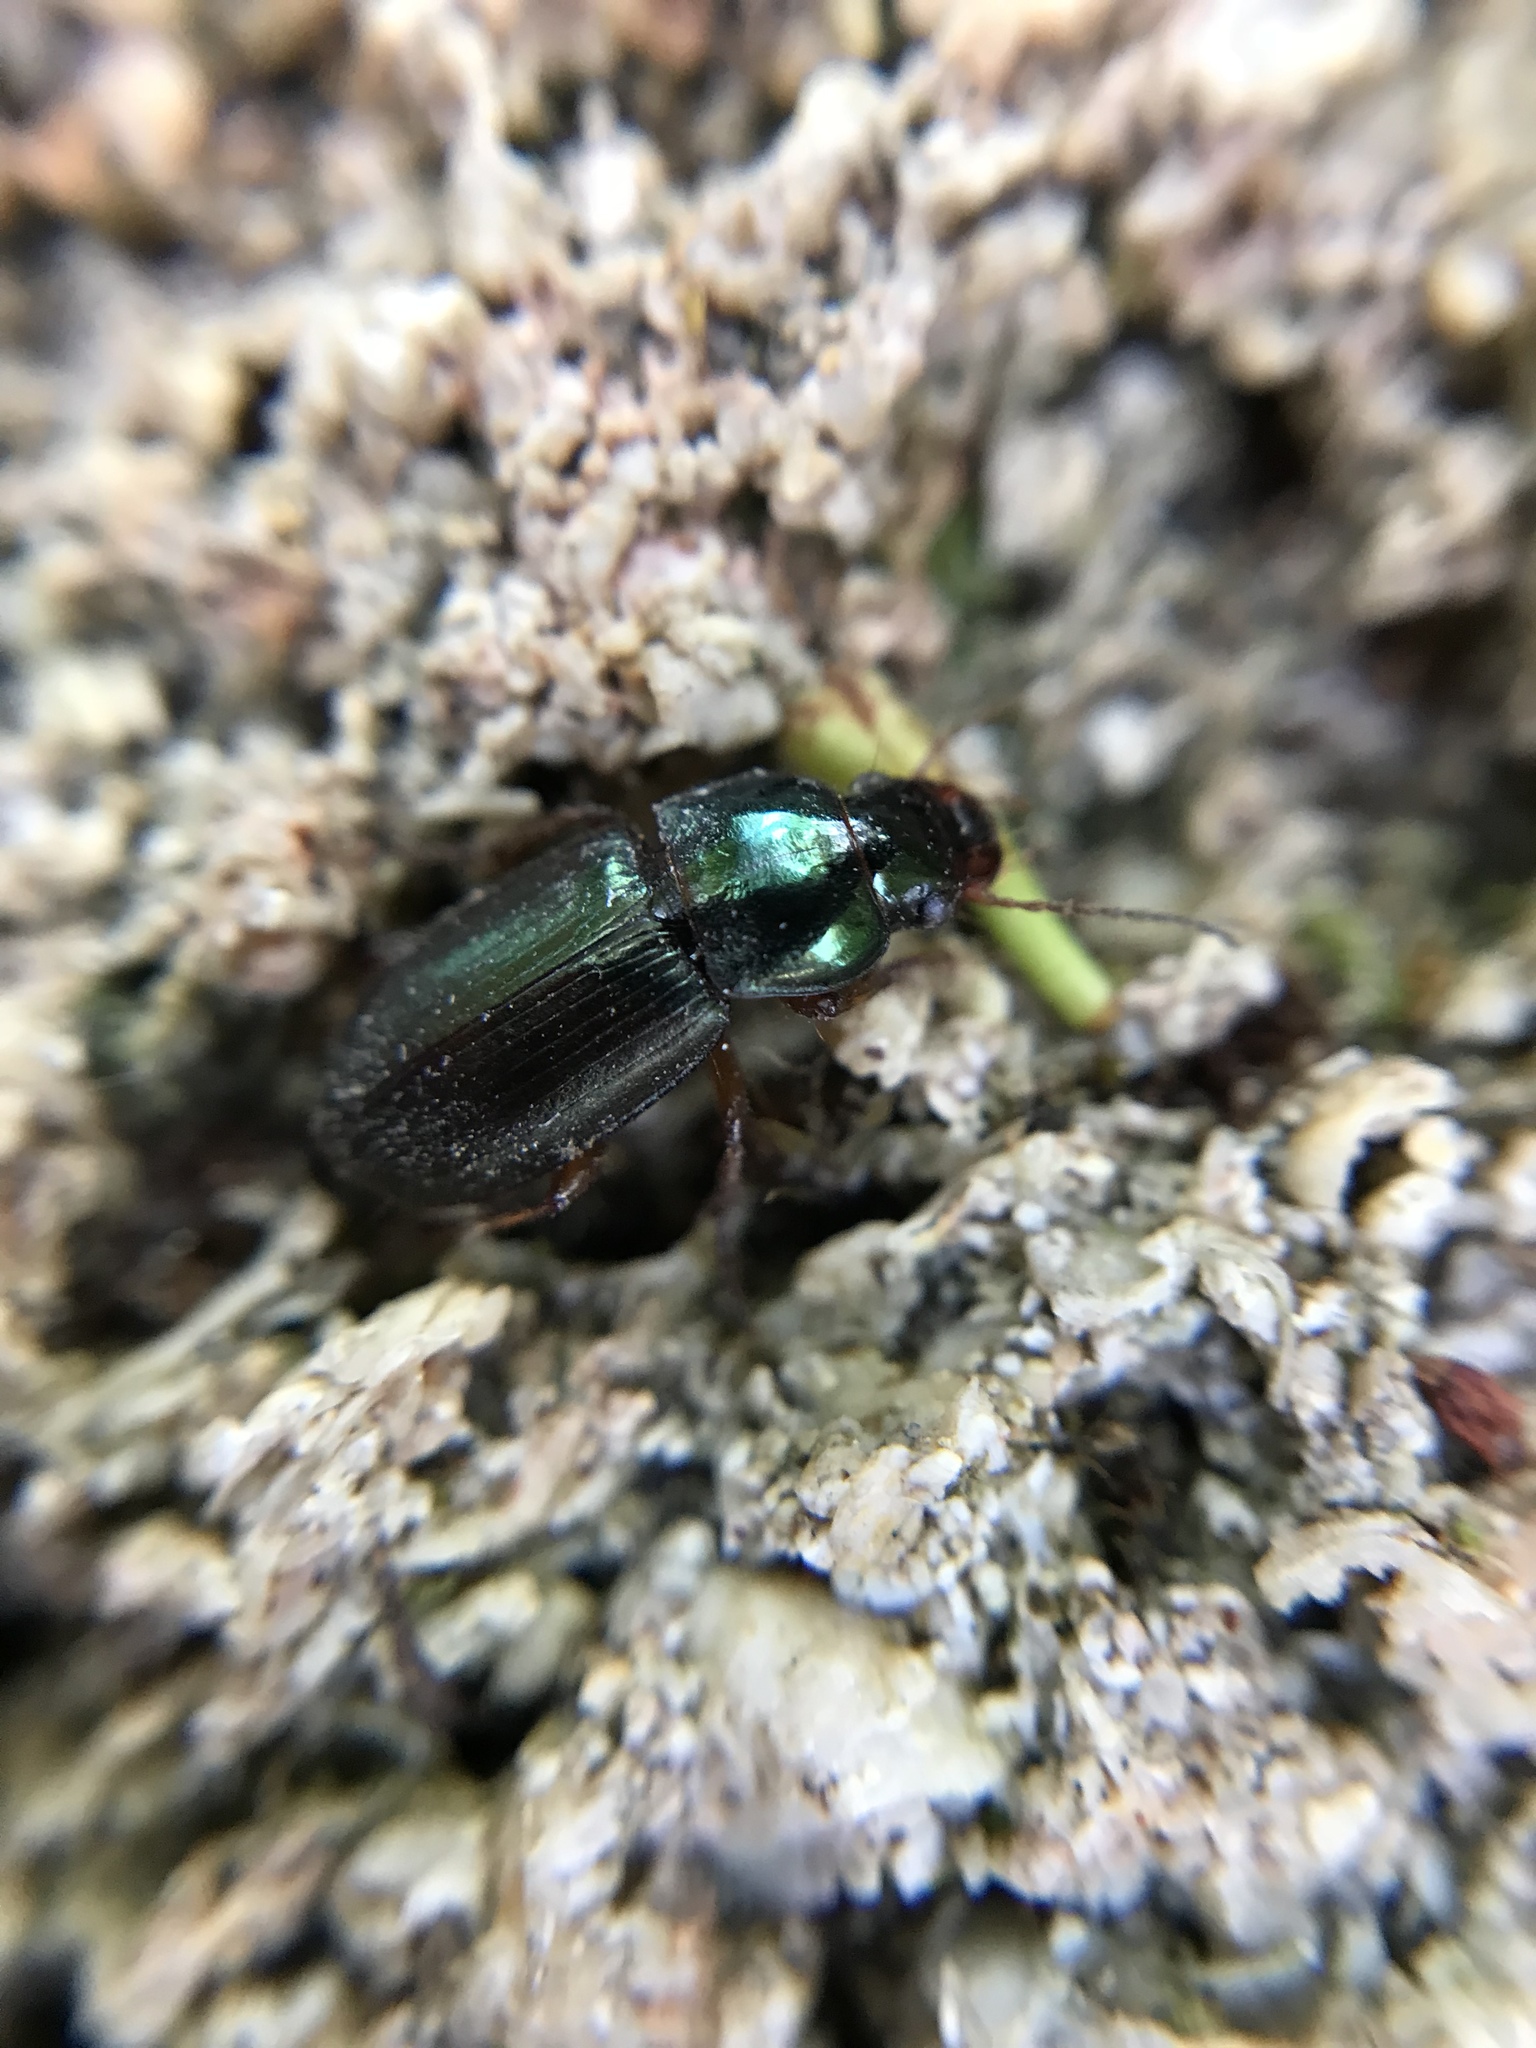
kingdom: Animalia
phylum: Arthropoda
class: Insecta
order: Coleoptera
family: Carabidae
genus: Harpalus
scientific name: Harpalus affinis
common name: Polychrome harp ground beetle
